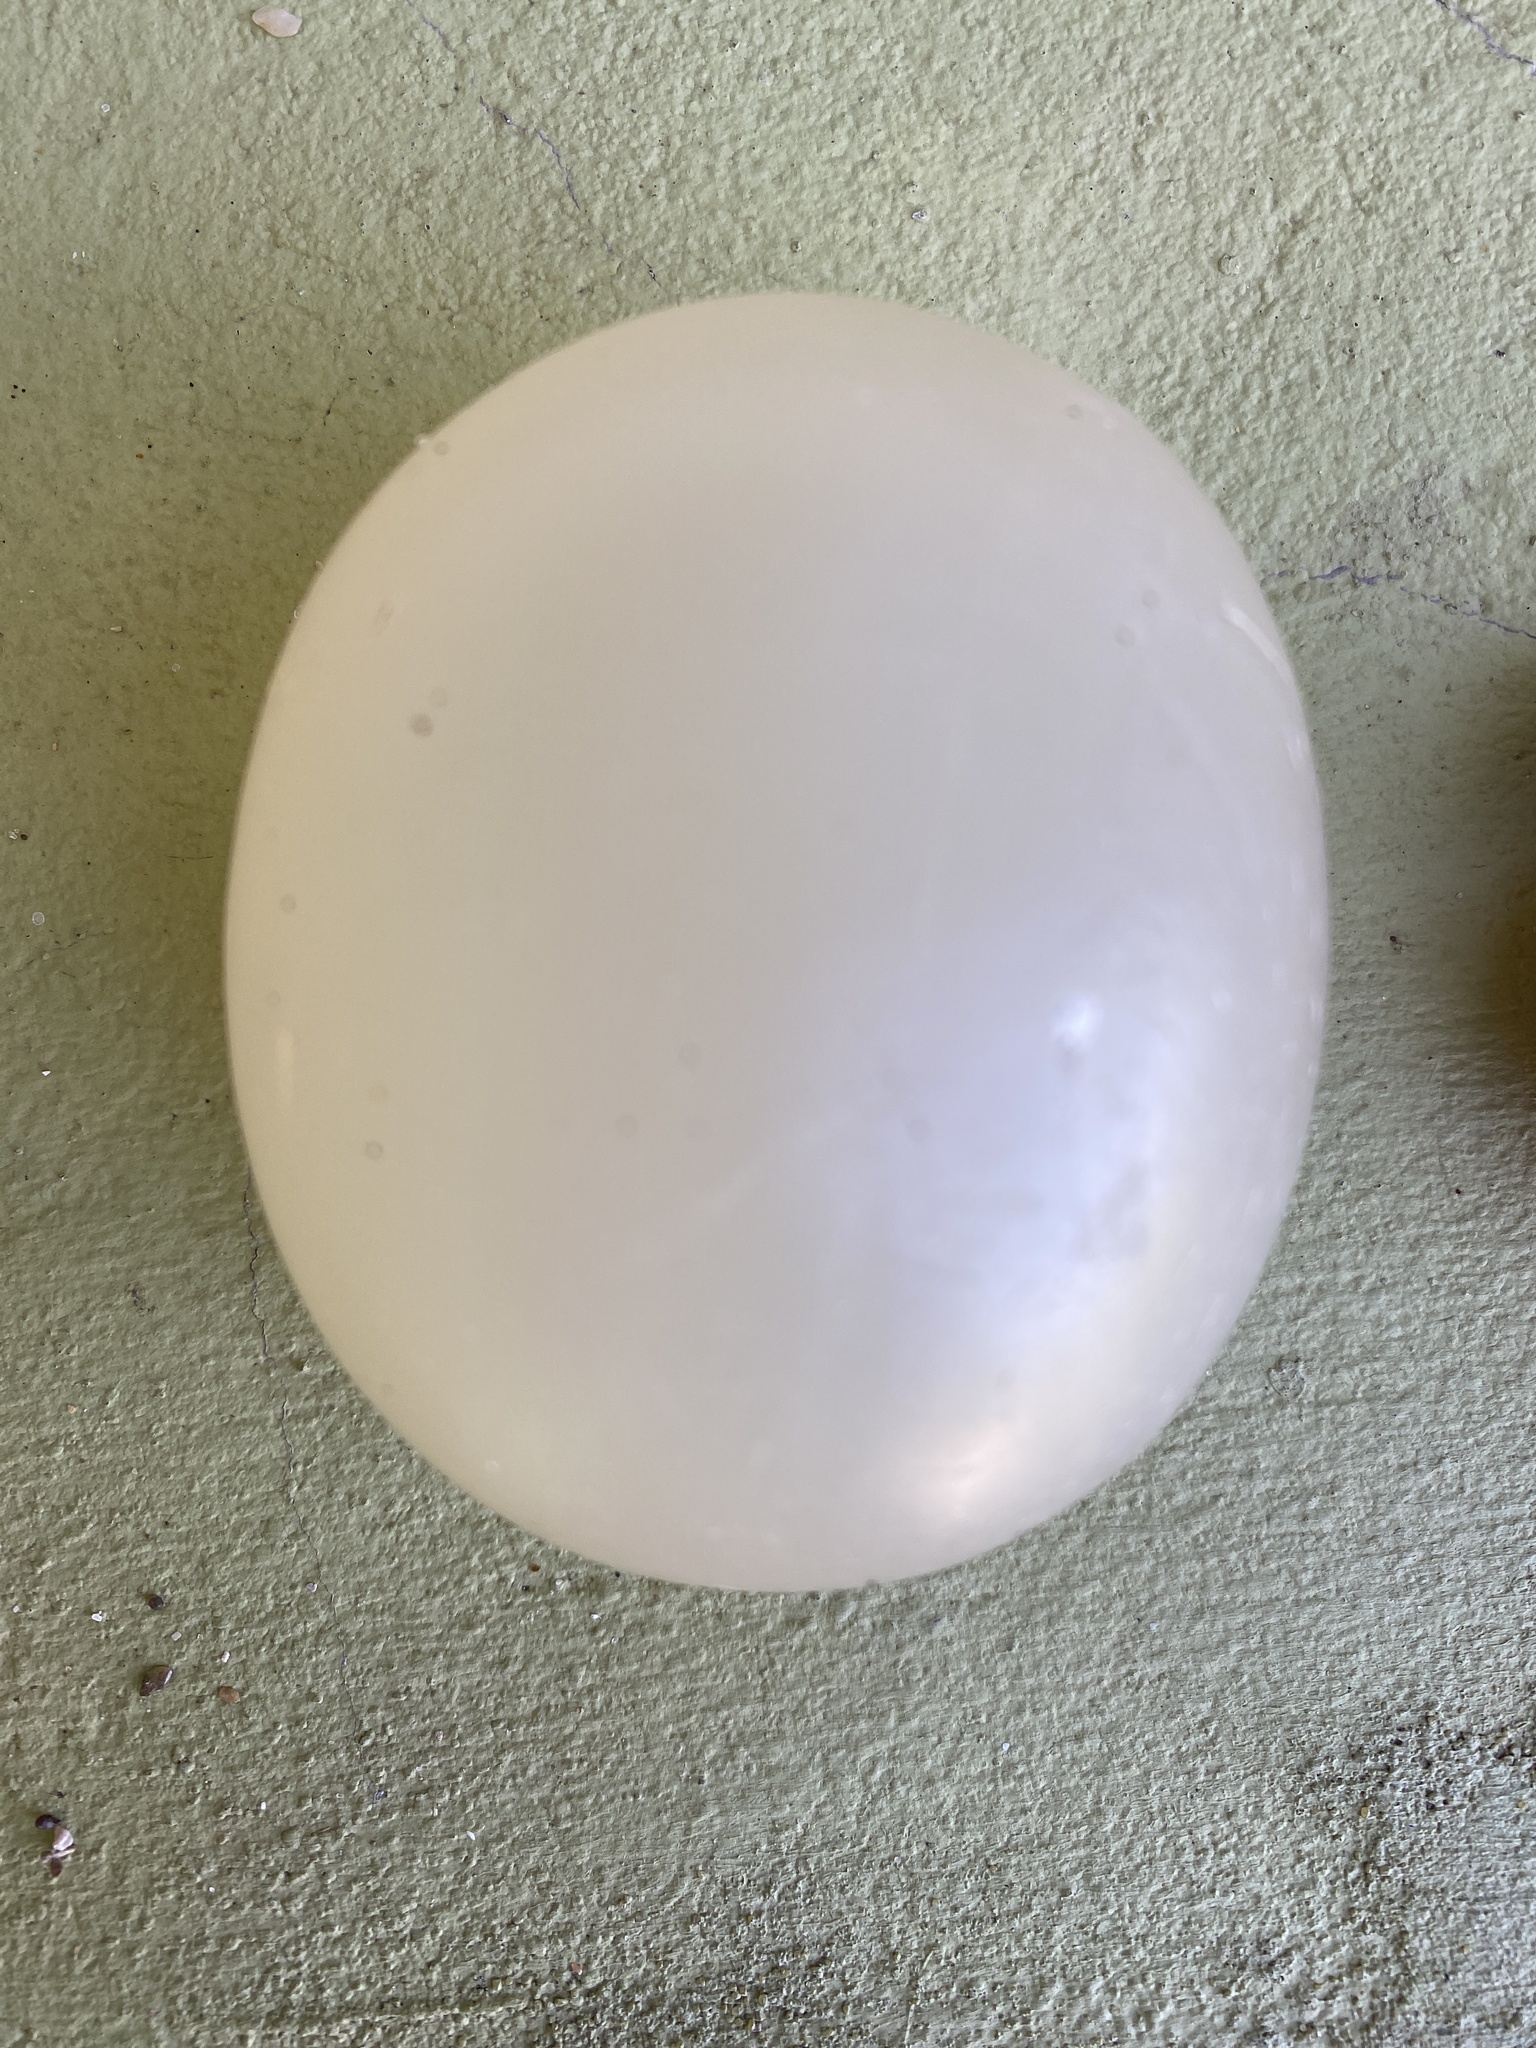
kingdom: Animalia
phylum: Mollusca
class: Gastropoda
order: Neogastropoda
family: Volutidae
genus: Pachycymbiola
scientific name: Pachycymbiola brasiliana
